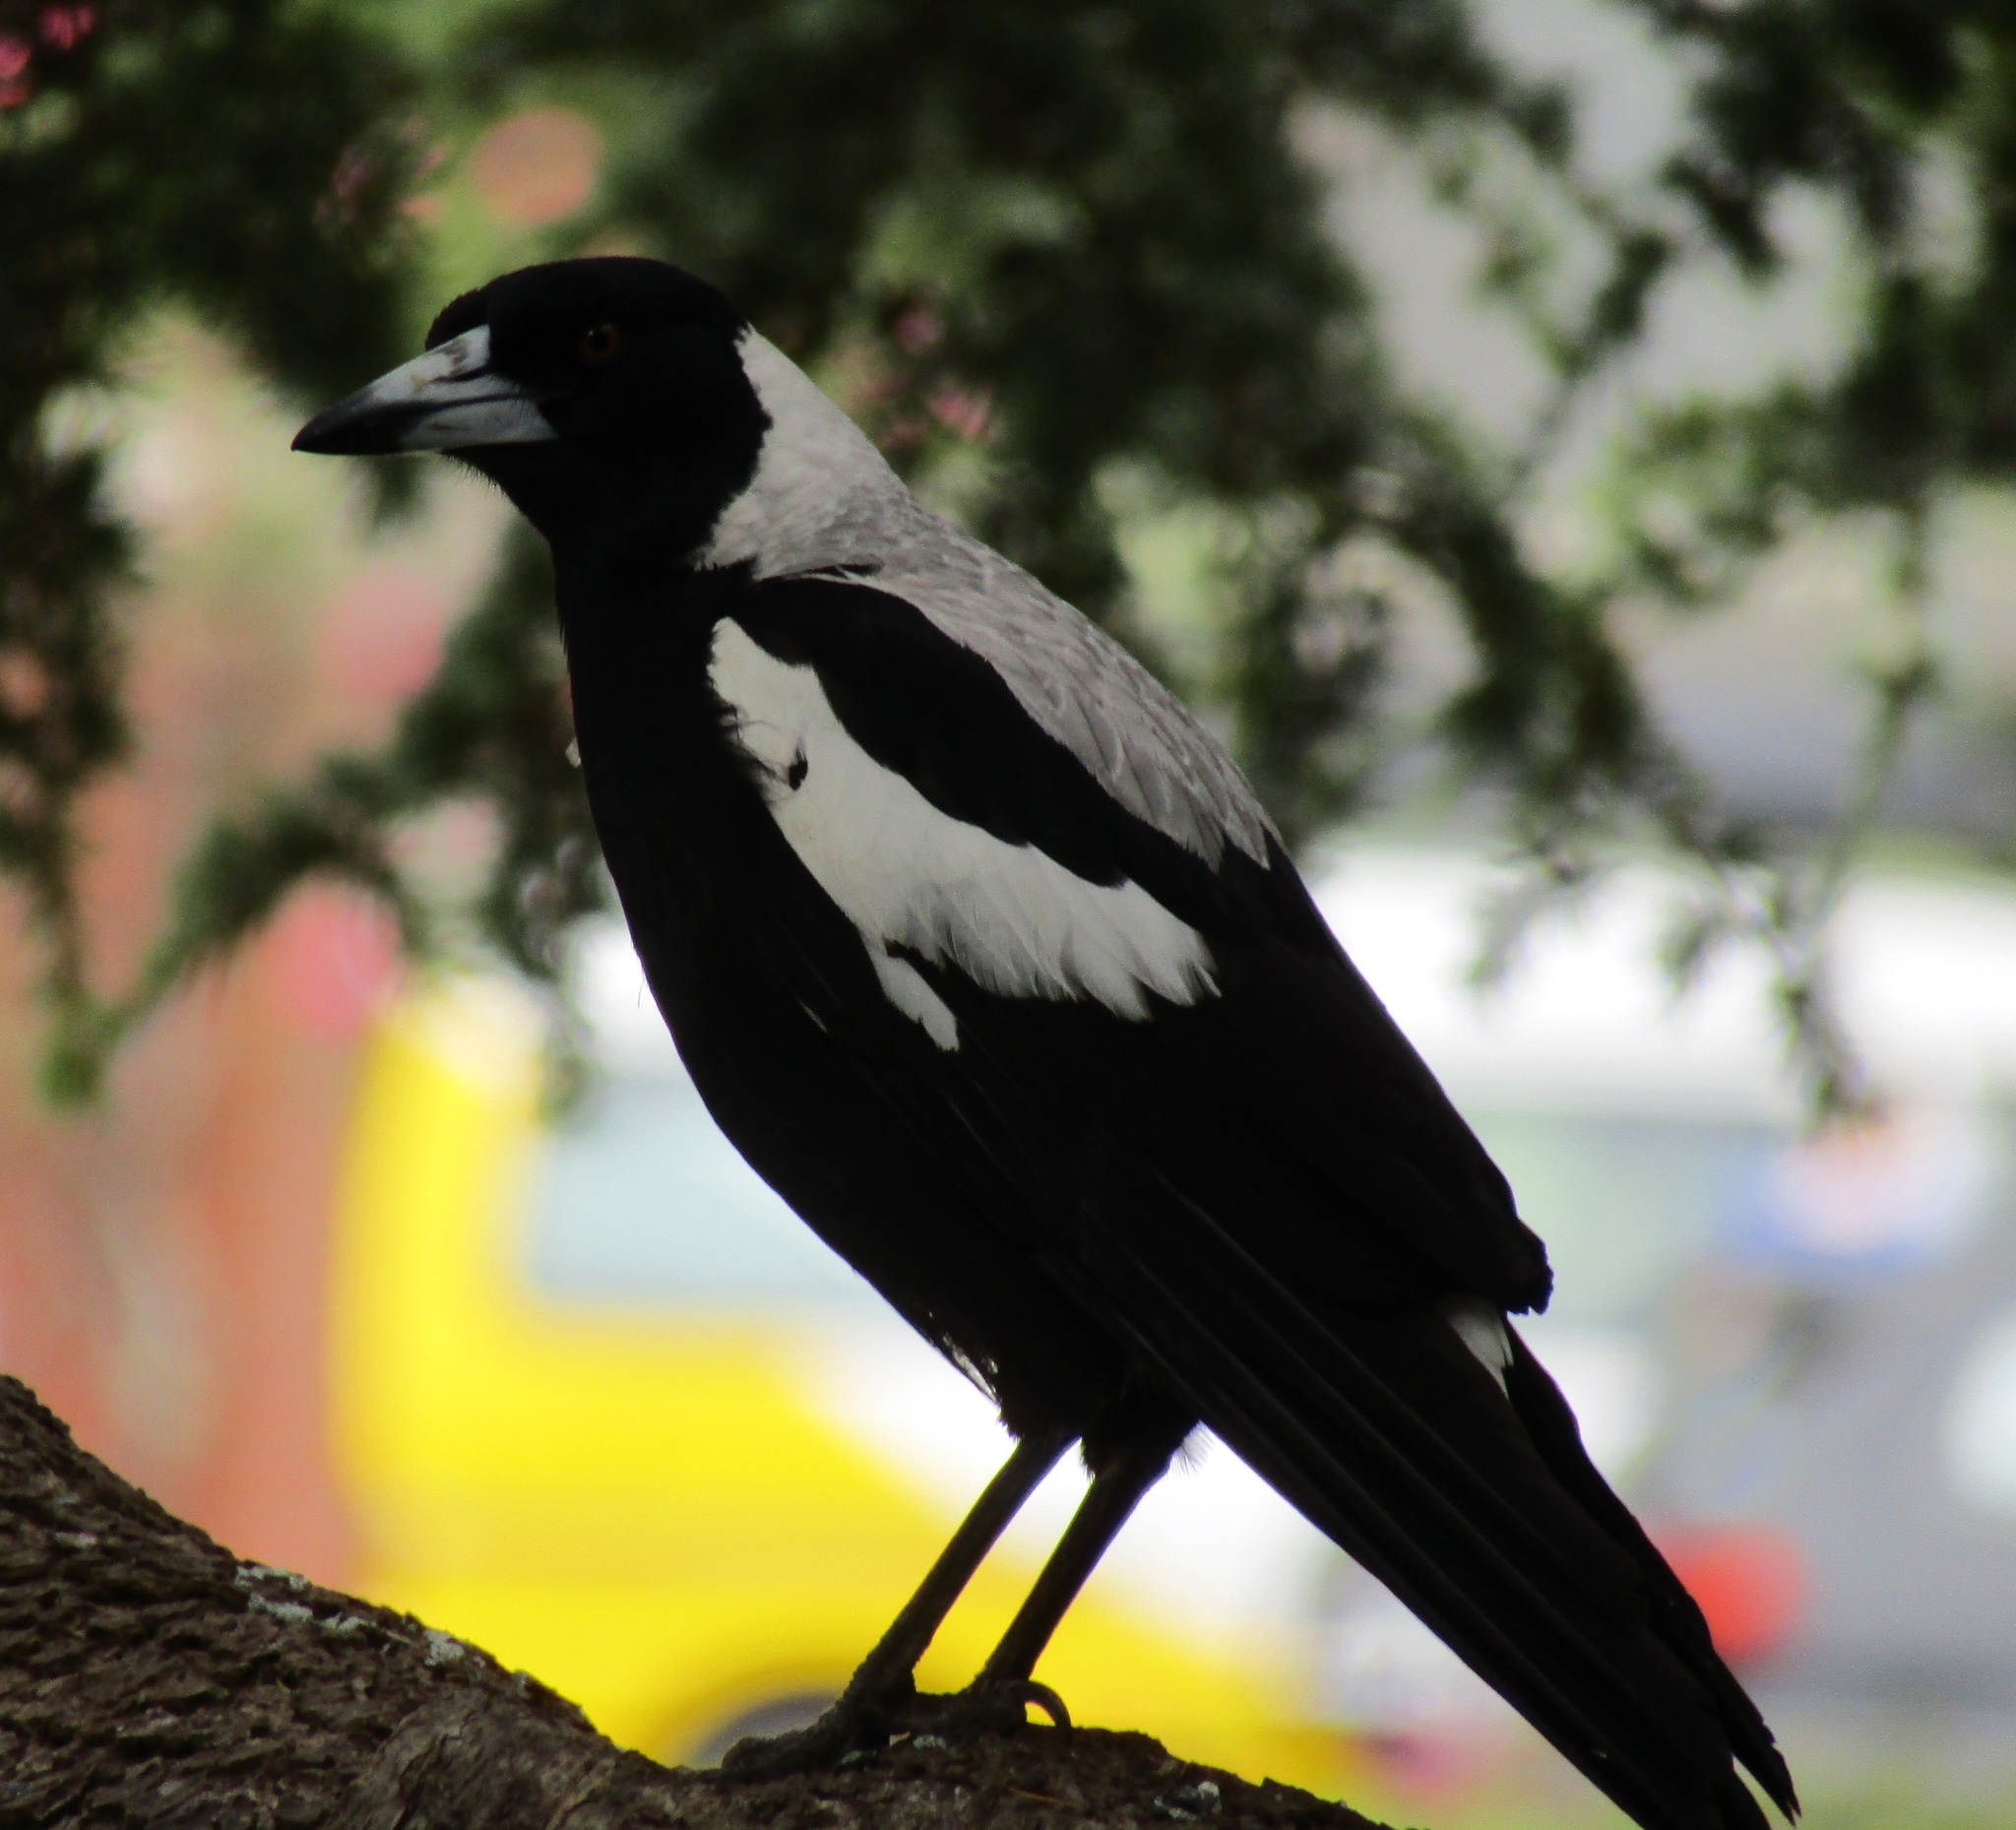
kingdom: Animalia
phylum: Chordata
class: Aves
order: Passeriformes
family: Cracticidae
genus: Gymnorhina
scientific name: Gymnorhina tibicen
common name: Australian magpie
